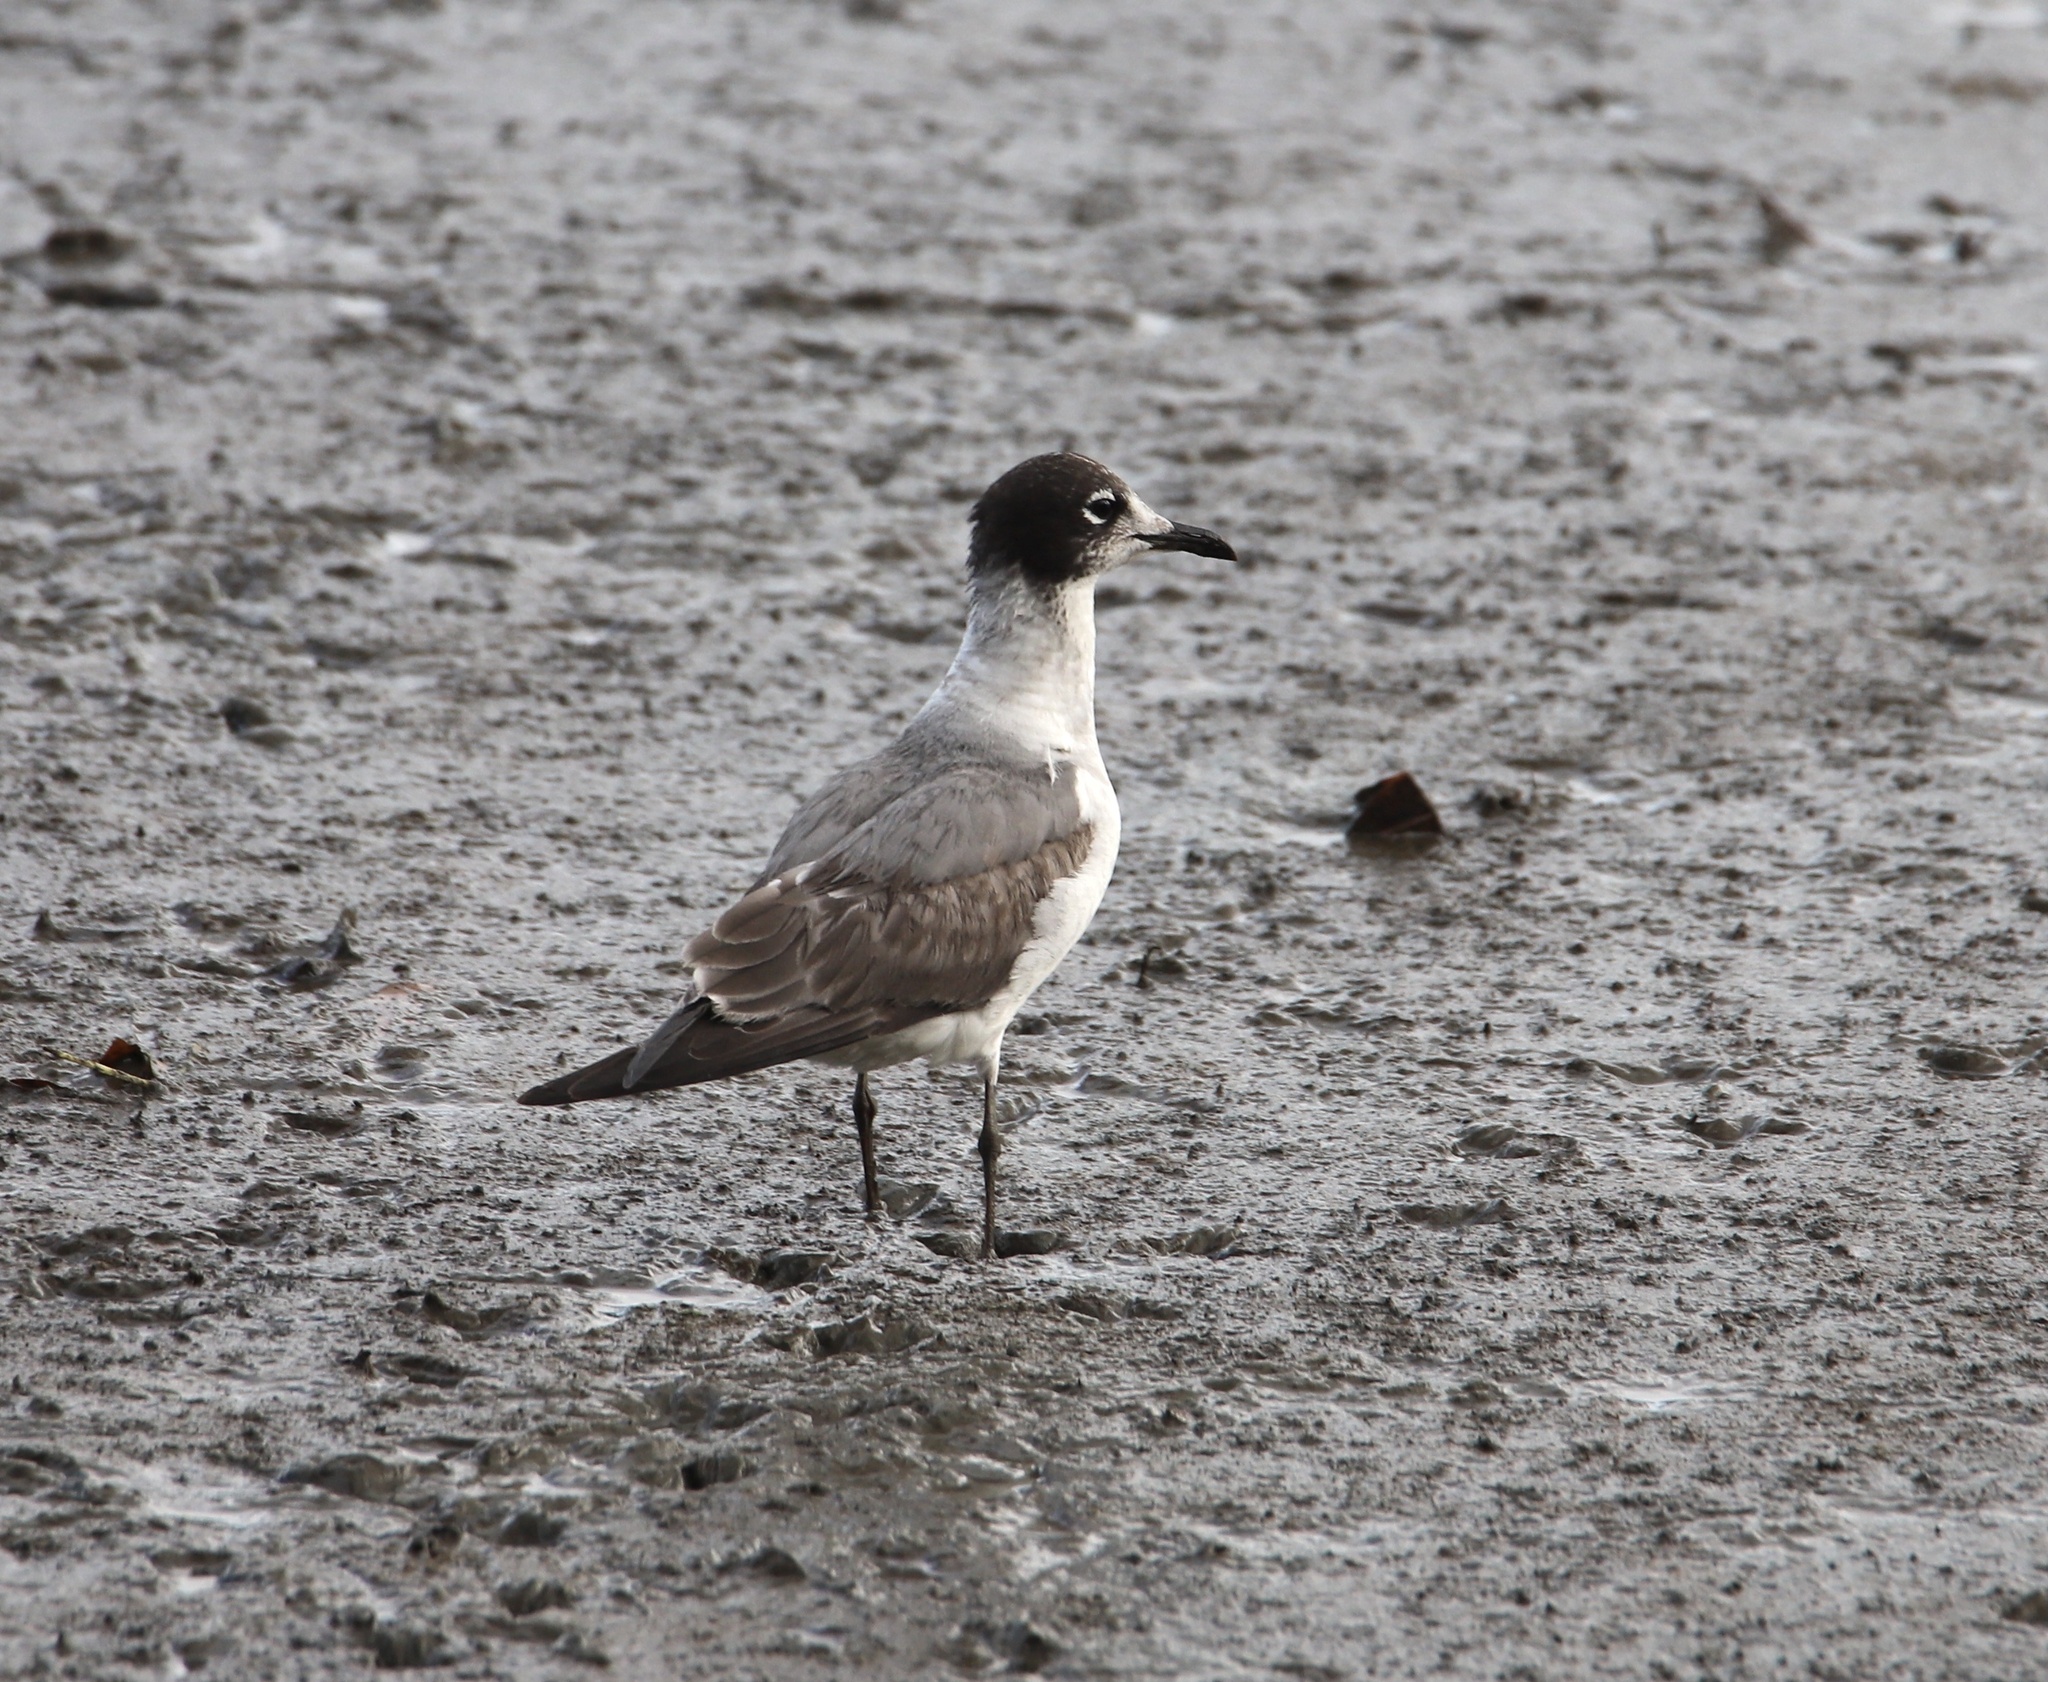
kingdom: Animalia
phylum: Chordata
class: Aves
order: Charadriiformes
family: Laridae
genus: Leucophaeus
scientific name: Leucophaeus pipixcan
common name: Franklin's gull
